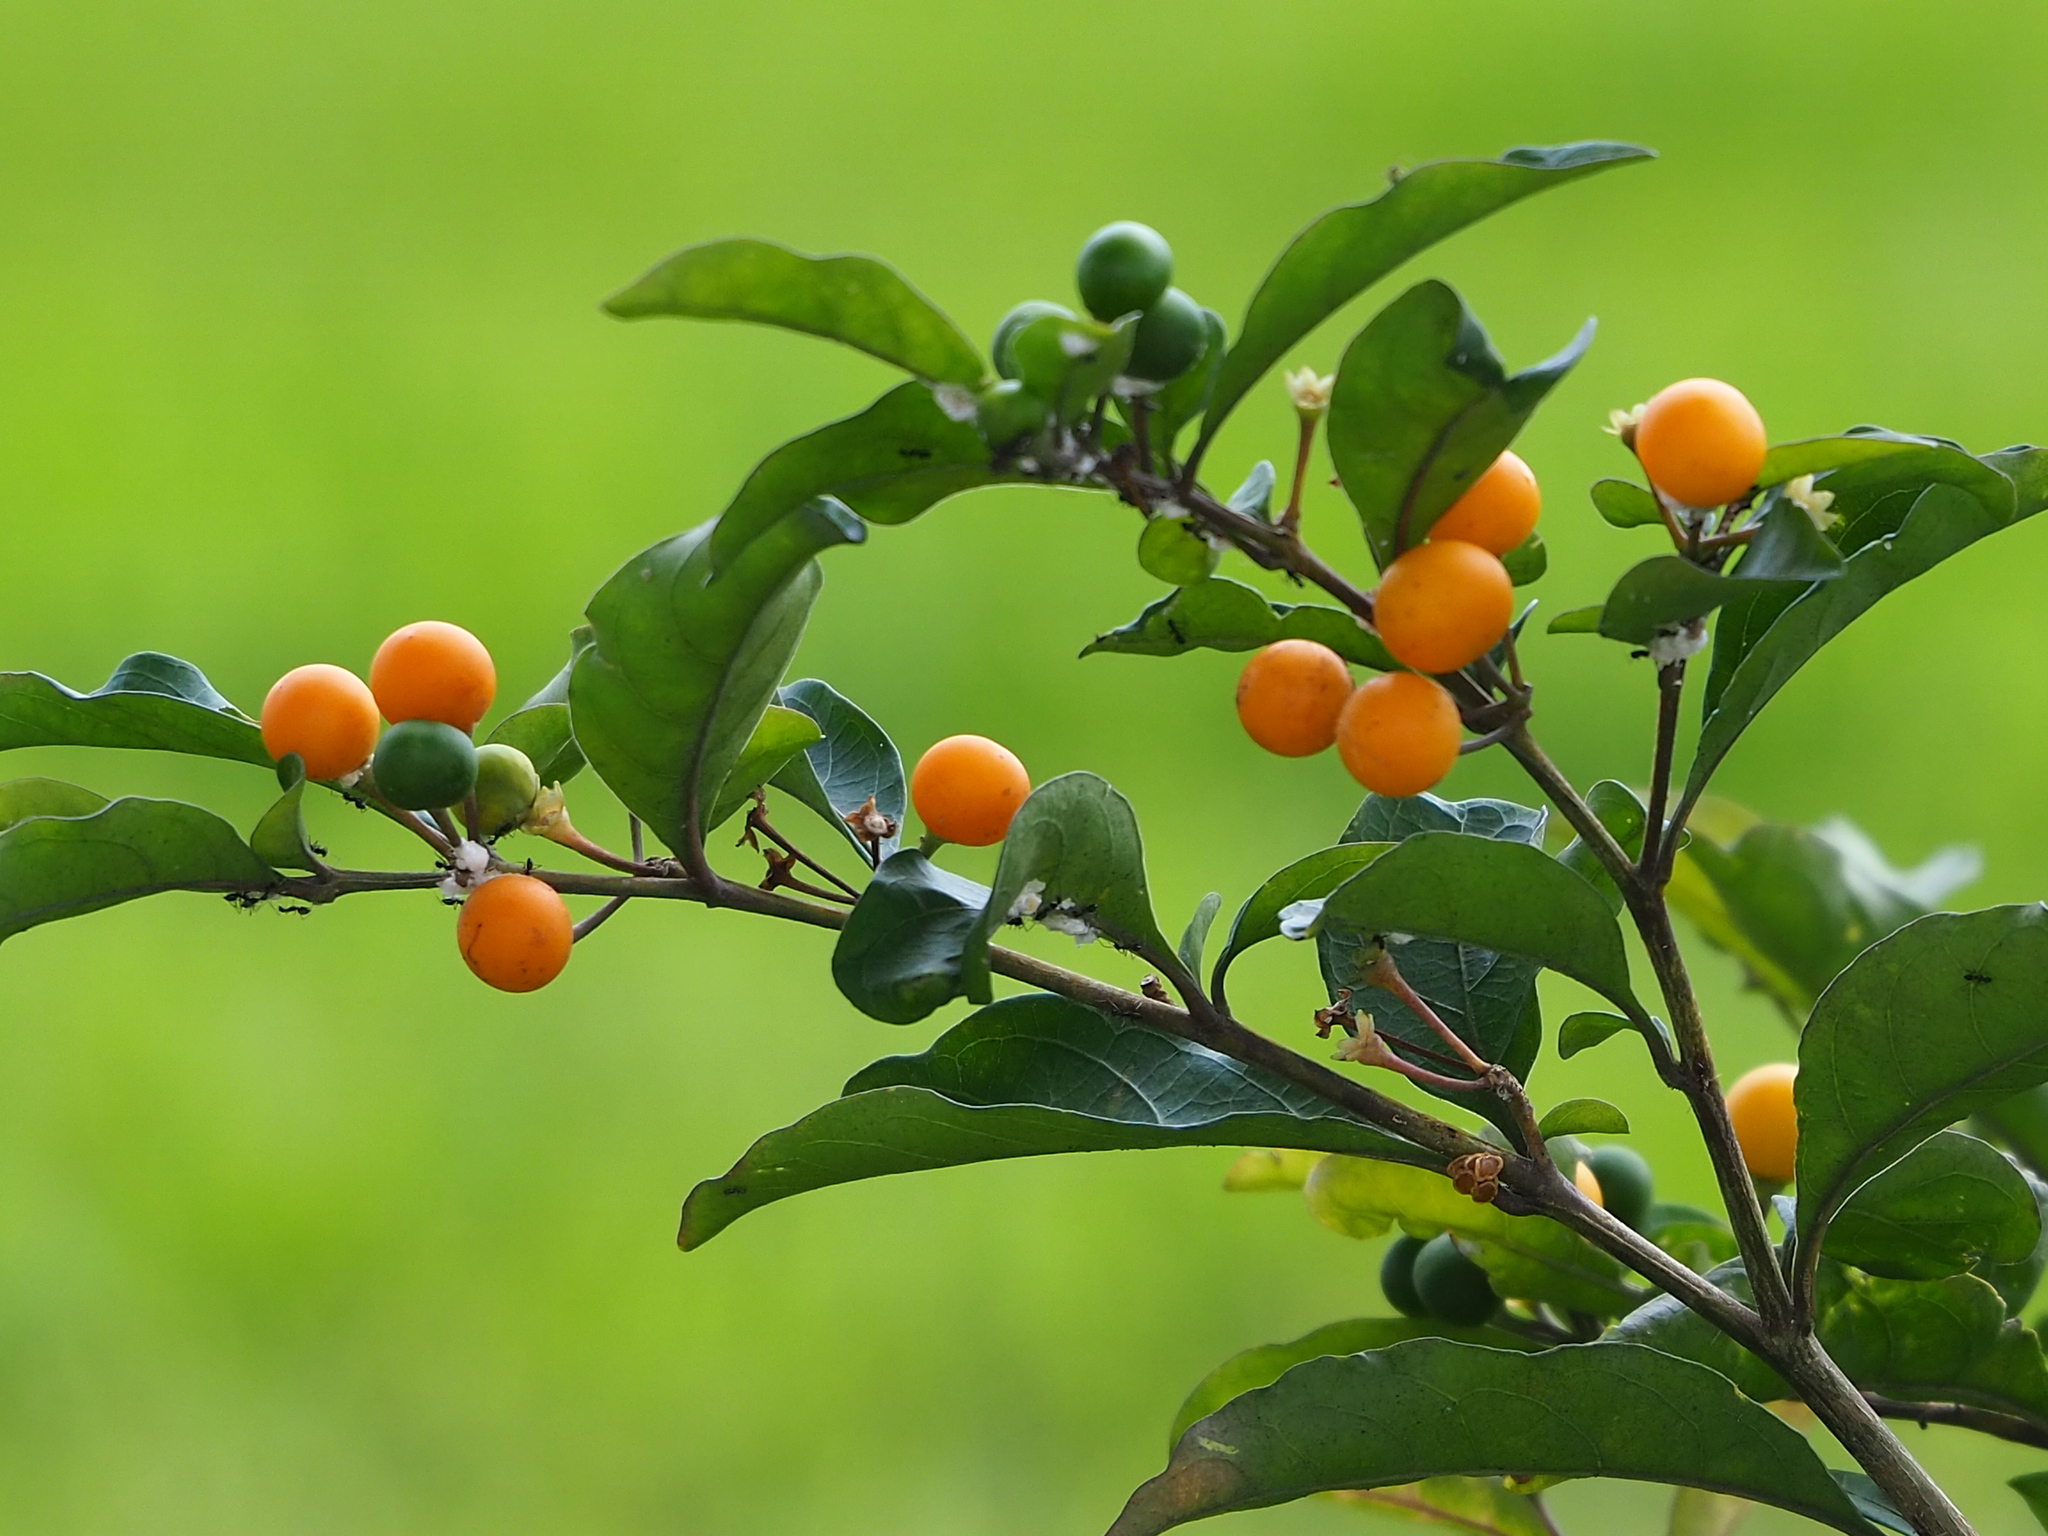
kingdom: Plantae
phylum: Tracheophyta
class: Magnoliopsida
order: Solanales
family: Solanaceae
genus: Solanum
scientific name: Solanum diphyllum
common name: Twoleaf nightshade
